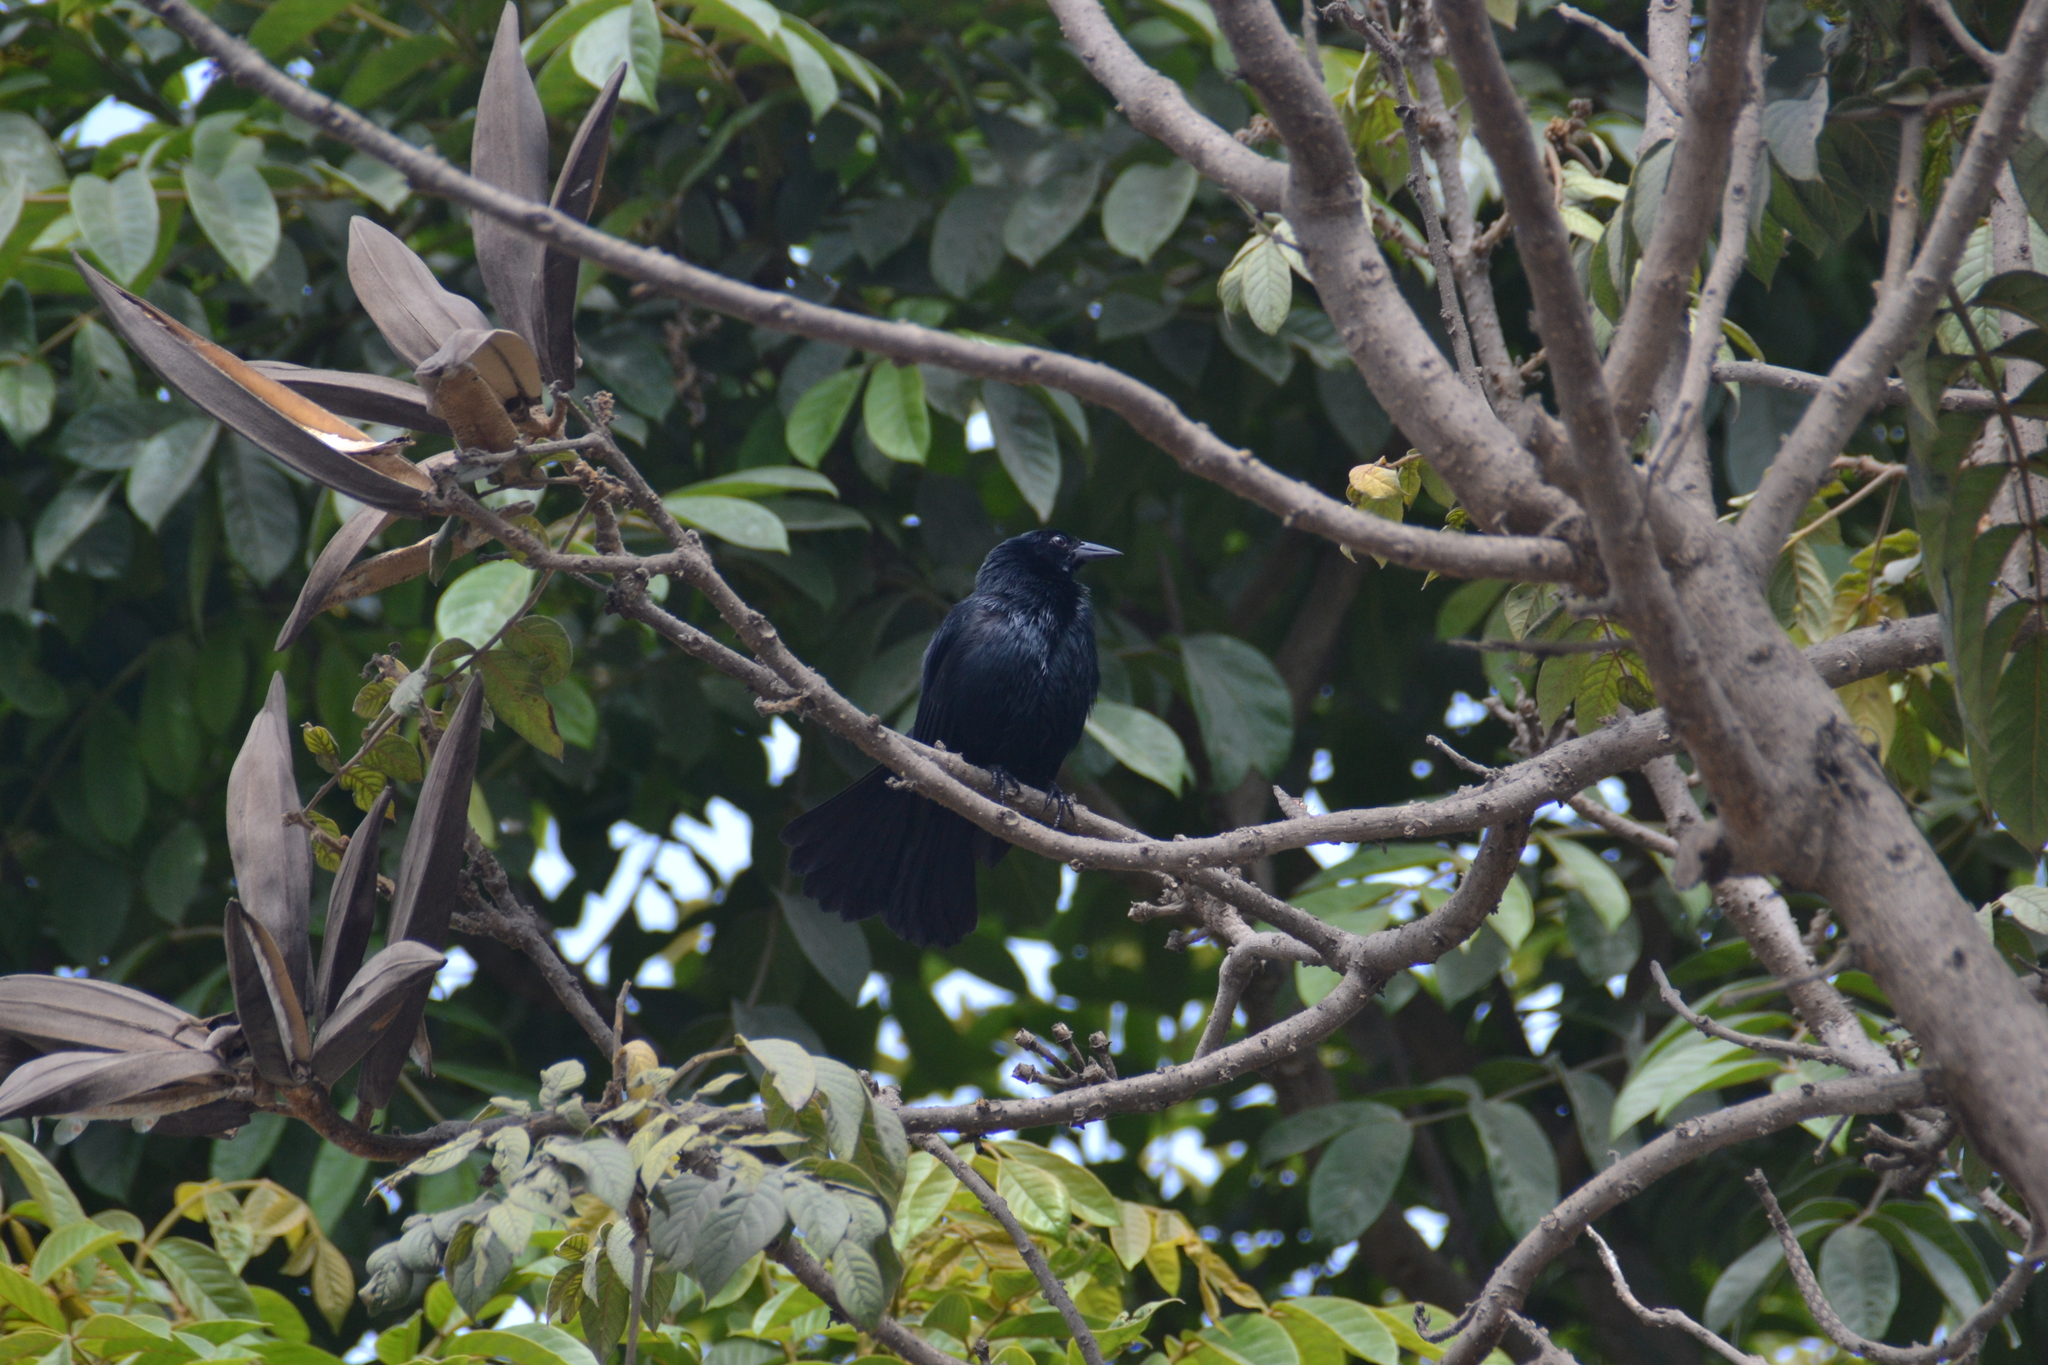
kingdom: Animalia
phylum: Chordata
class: Aves
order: Passeriformes
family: Icteridae
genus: Dives
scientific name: Dives warczewiczi
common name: Scrub blackbird
